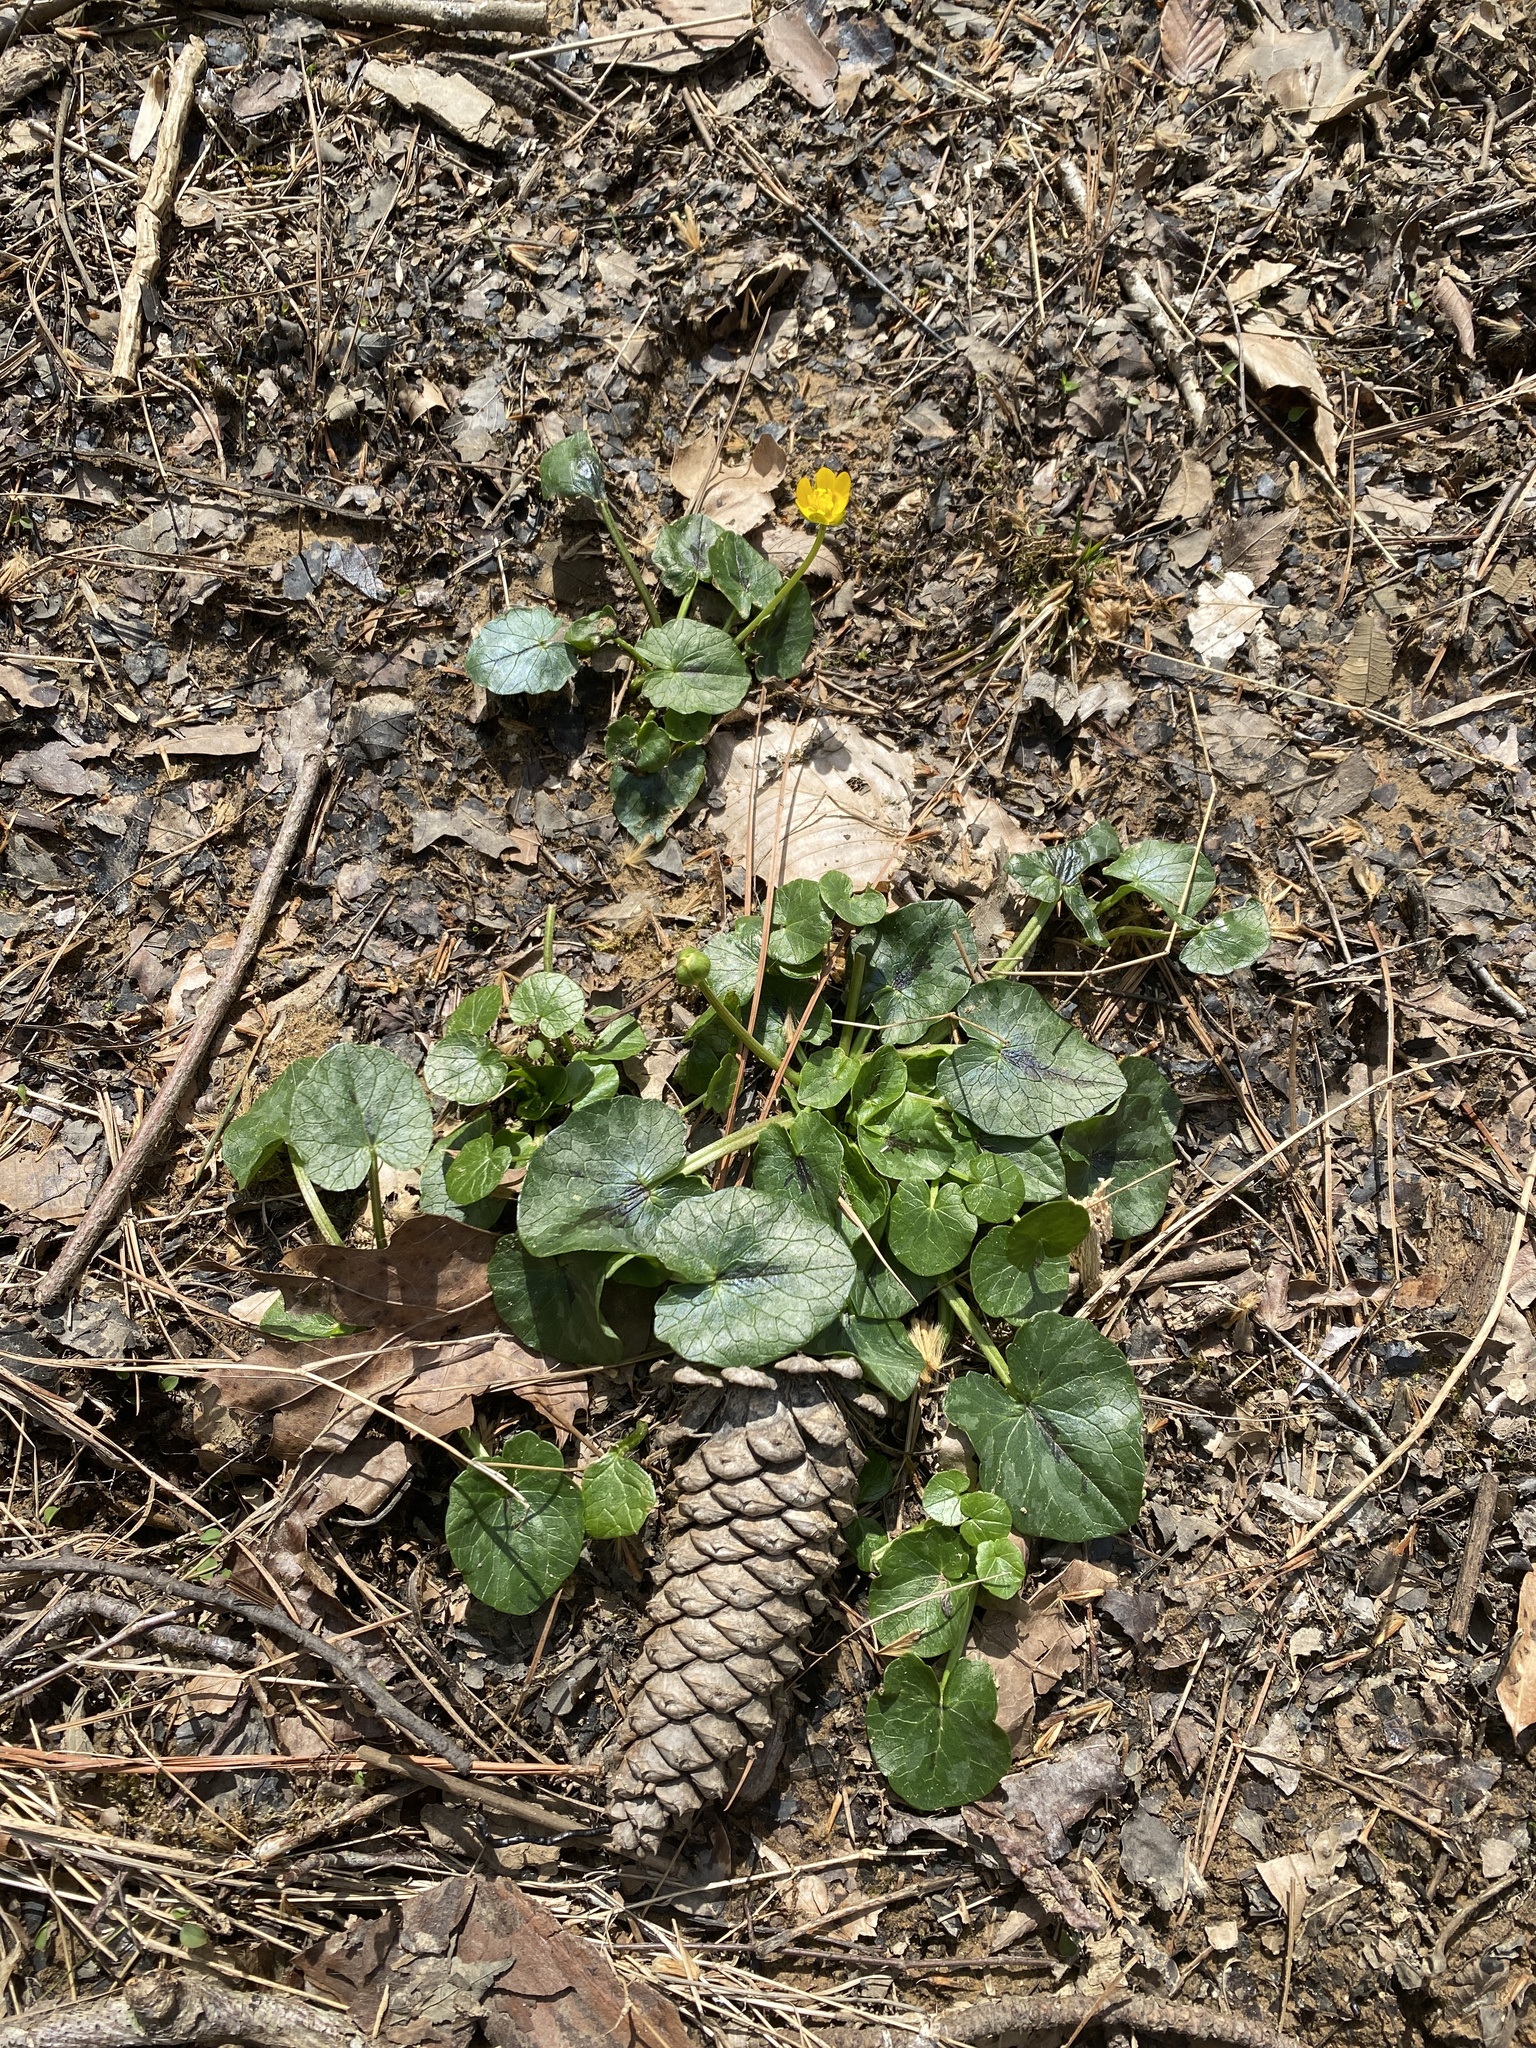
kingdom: Plantae
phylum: Tracheophyta
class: Magnoliopsida
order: Ranunculales
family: Ranunculaceae
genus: Ficaria
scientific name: Ficaria verna
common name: Lesser celandine
